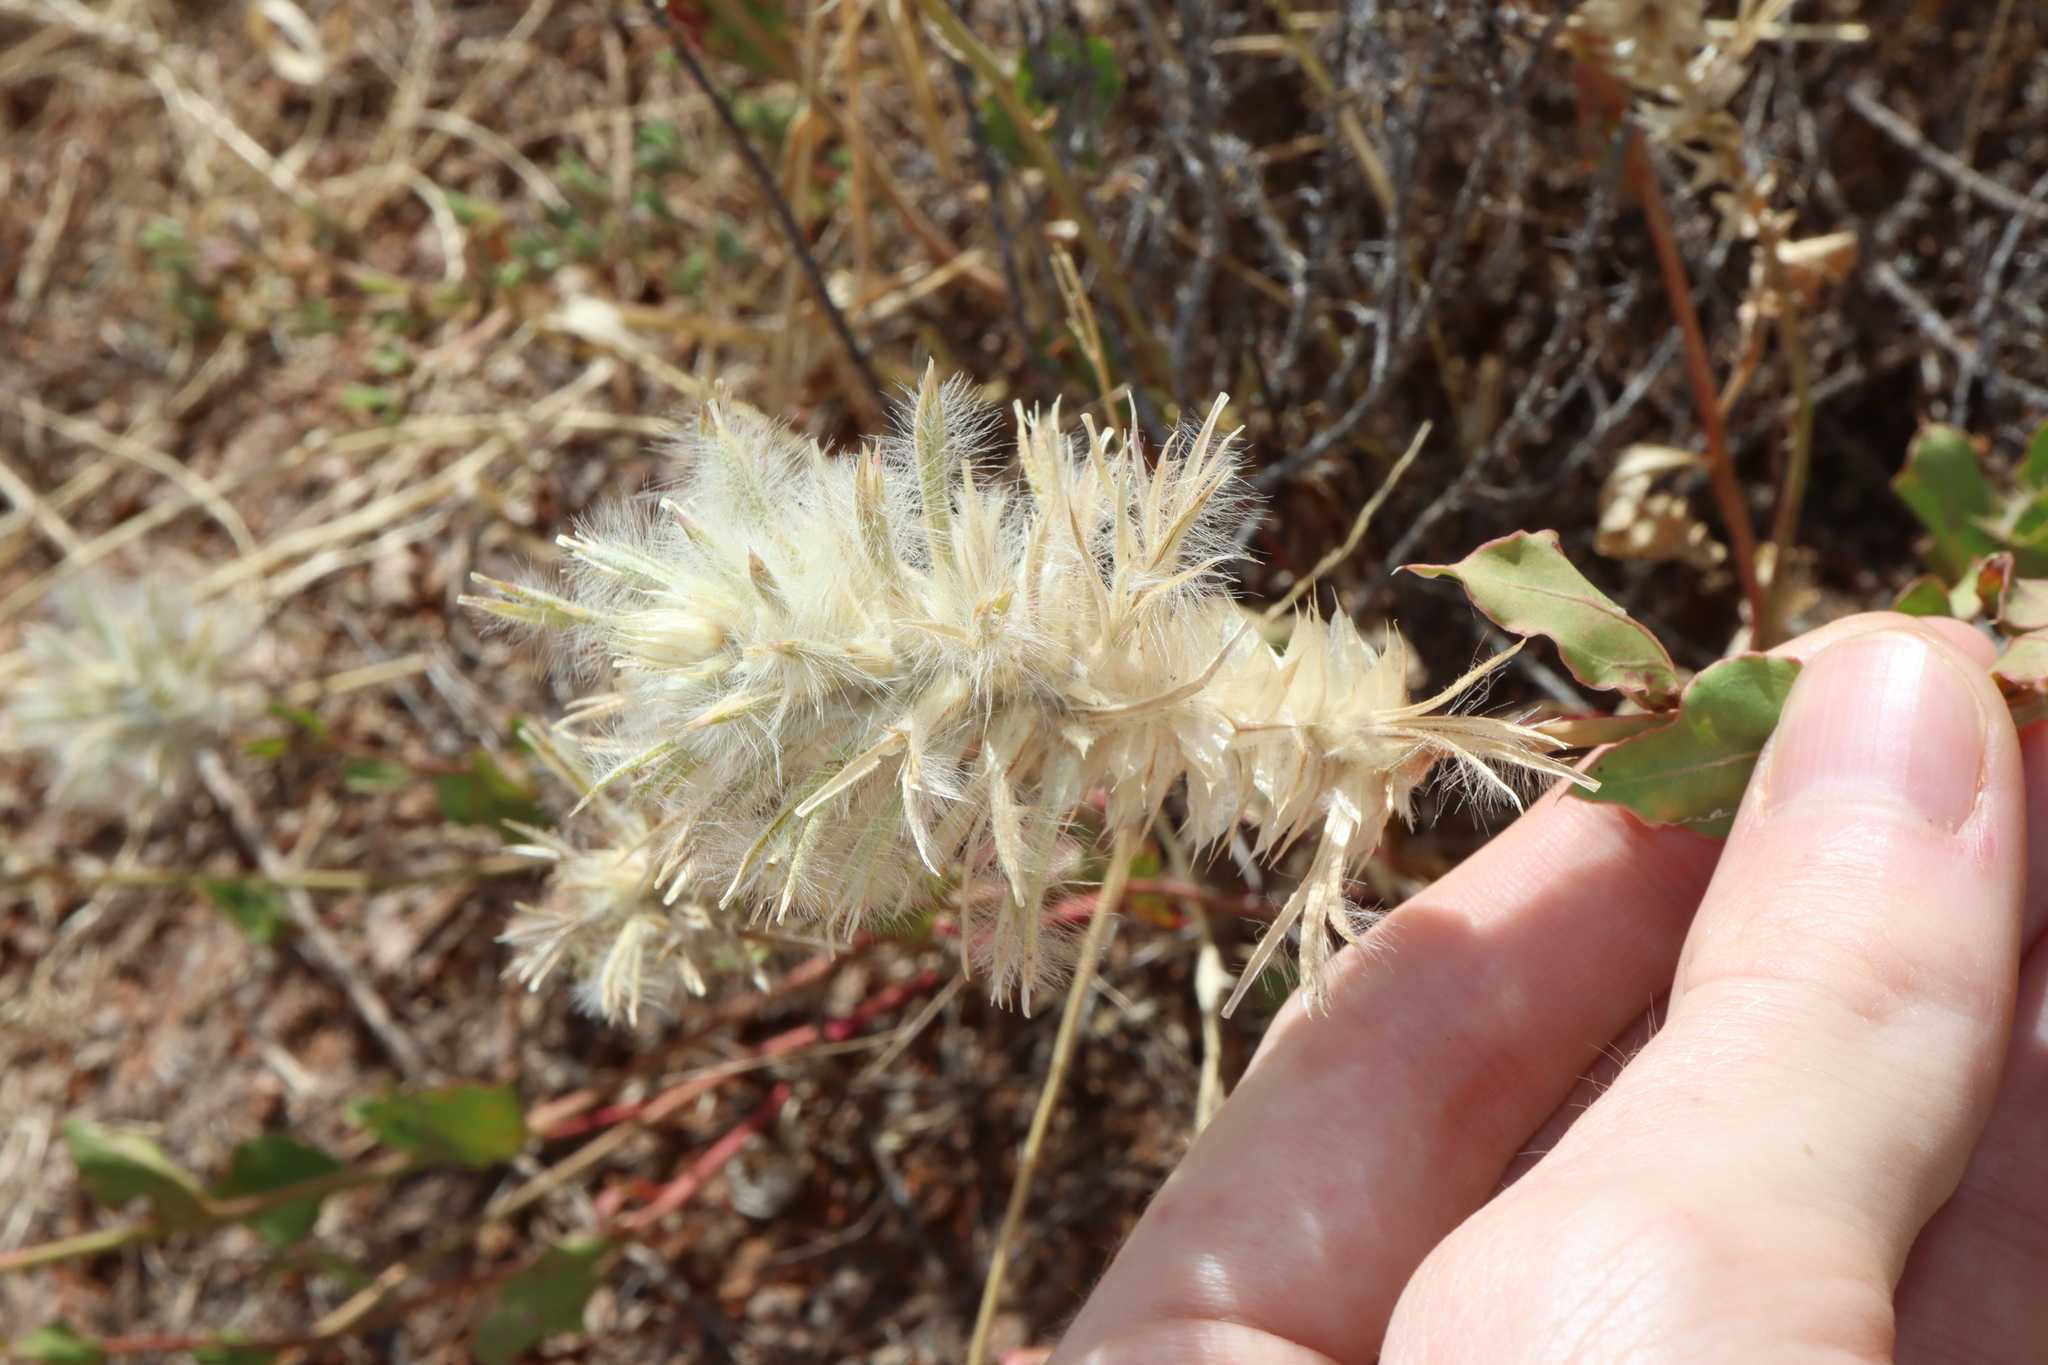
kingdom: Plantae
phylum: Tracheophyta
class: Magnoliopsida
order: Caryophyllales
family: Amaranthaceae
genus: Ptilotus
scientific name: Ptilotus nobilis
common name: Regal-foxtail
